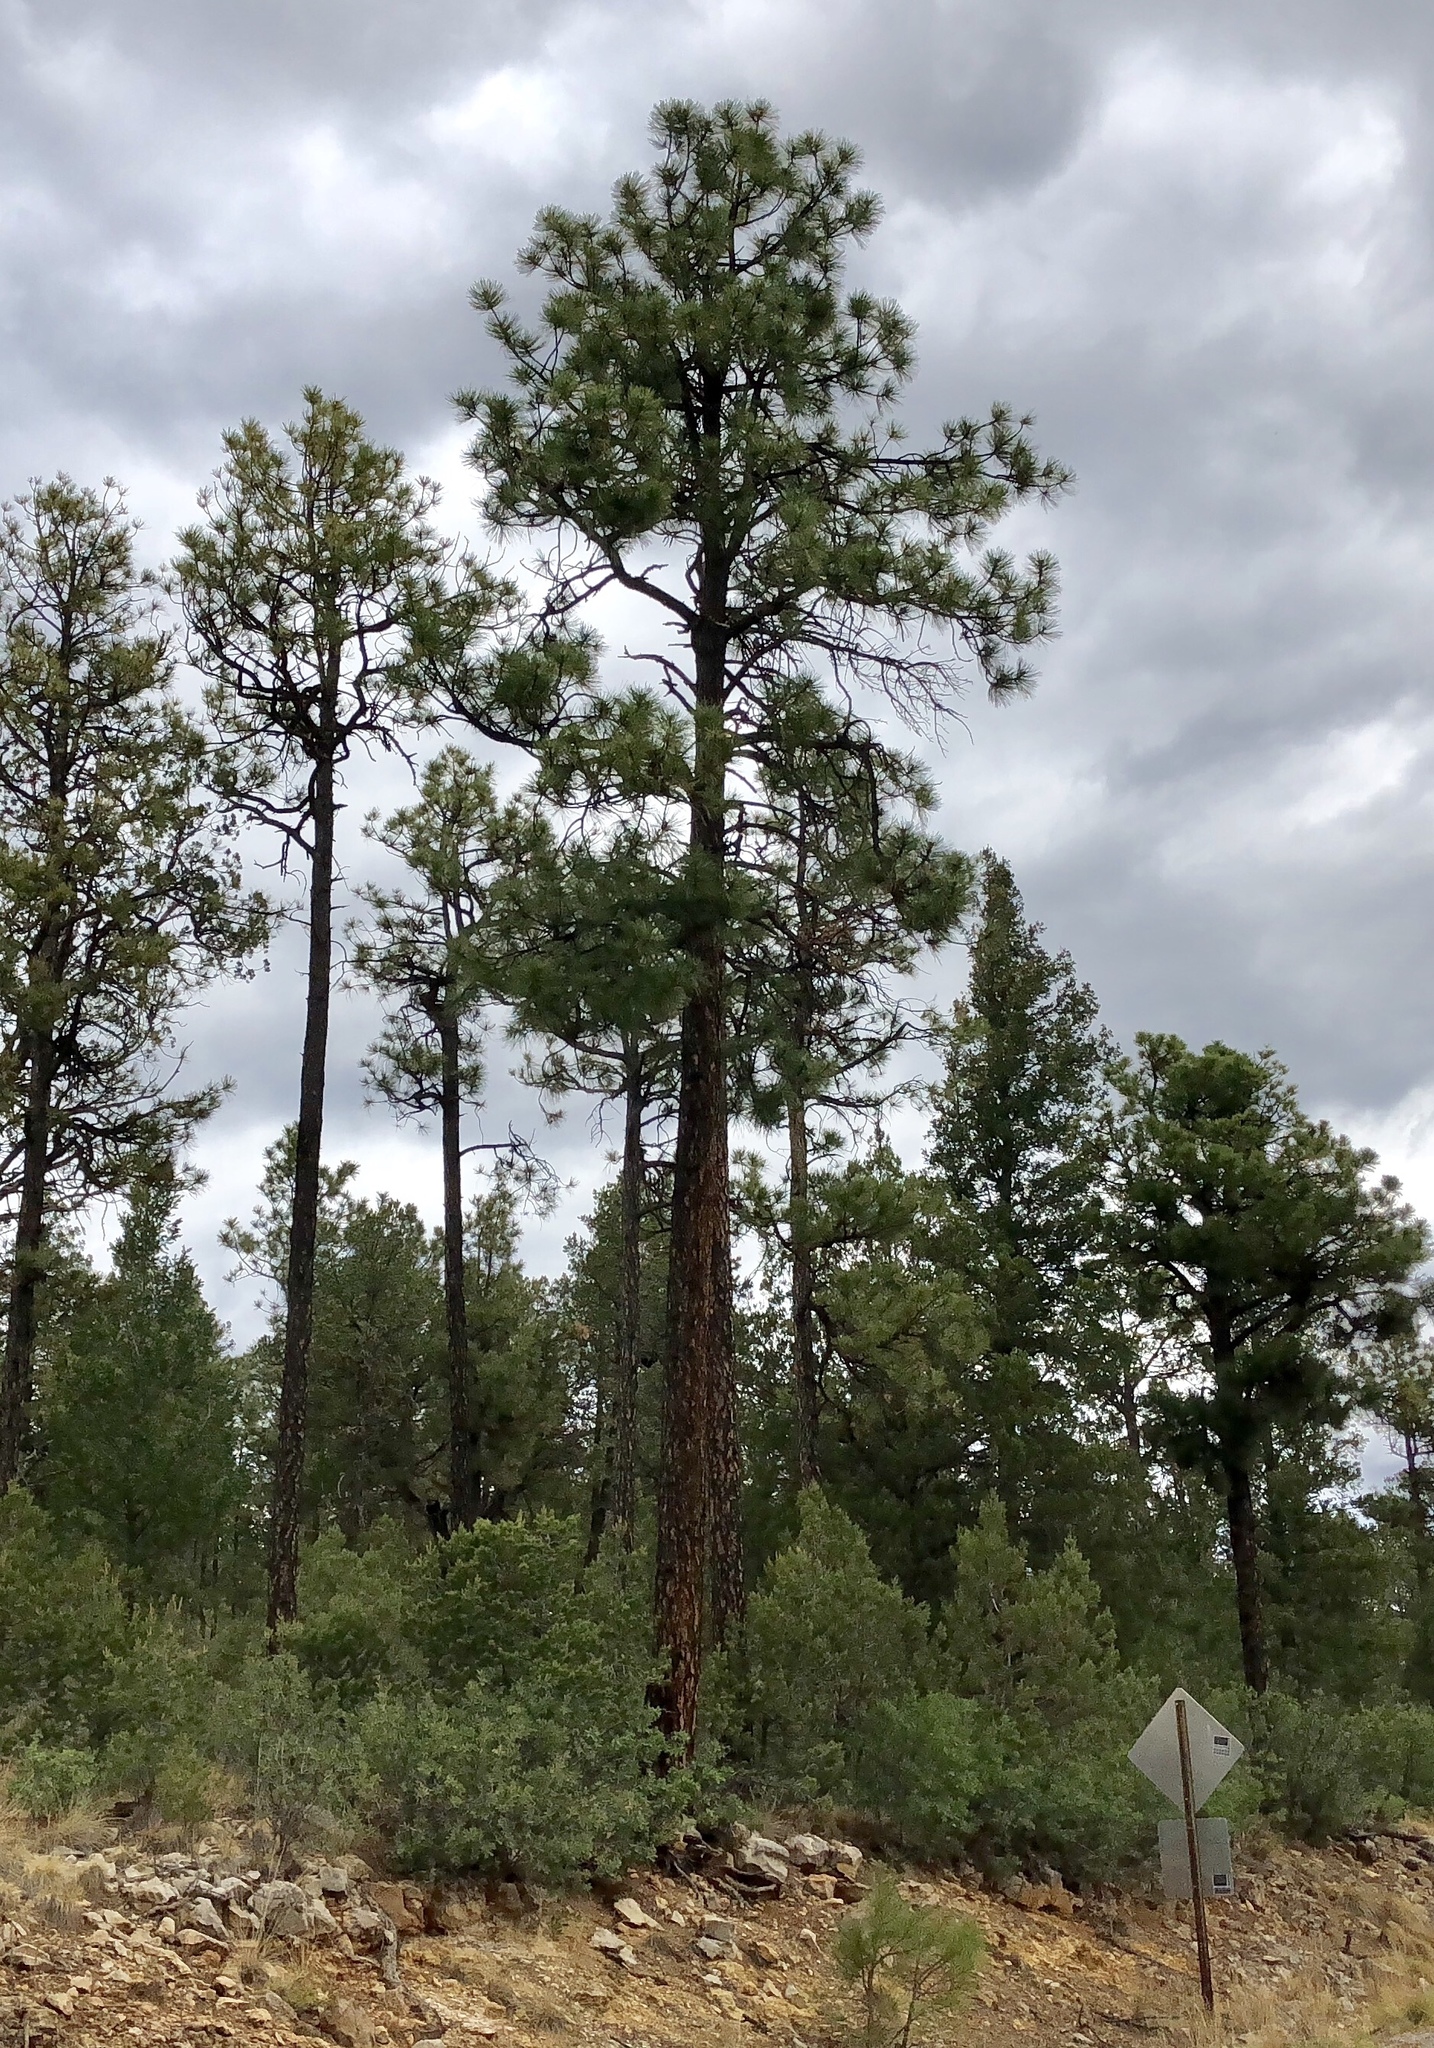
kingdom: Plantae
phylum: Tracheophyta
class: Pinopsida
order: Pinales
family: Pinaceae
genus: Pinus
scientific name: Pinus ponderosa
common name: Western yellow-pine
